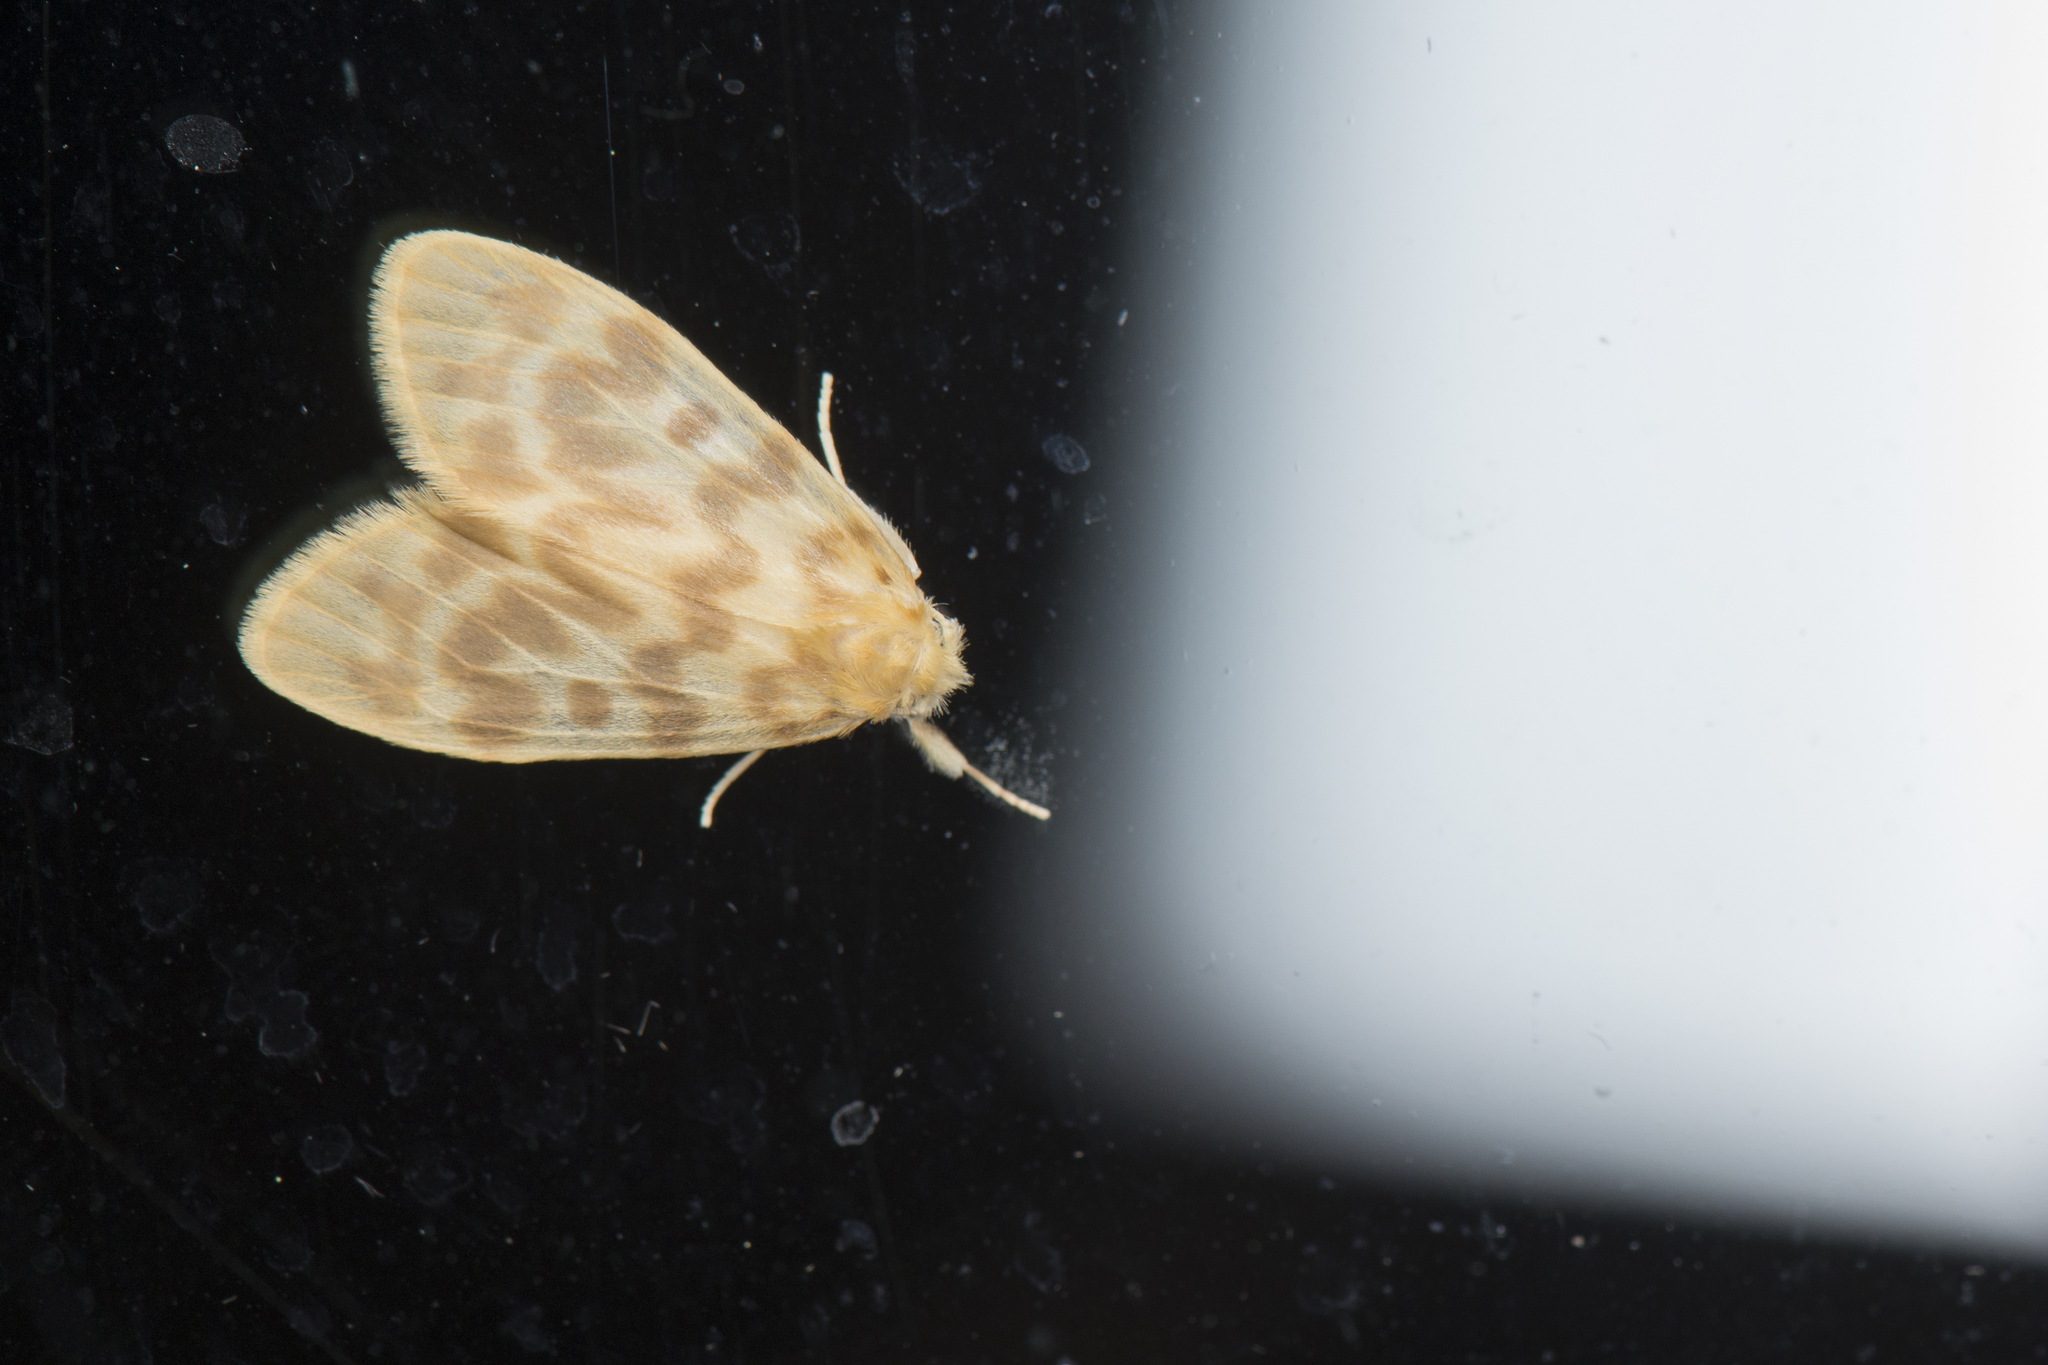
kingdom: Animalia
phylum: Arthropoda
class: Insecta
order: Lepidoptera
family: Erebidae
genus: Hemipsilia
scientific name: Hemipsilia coavestis
